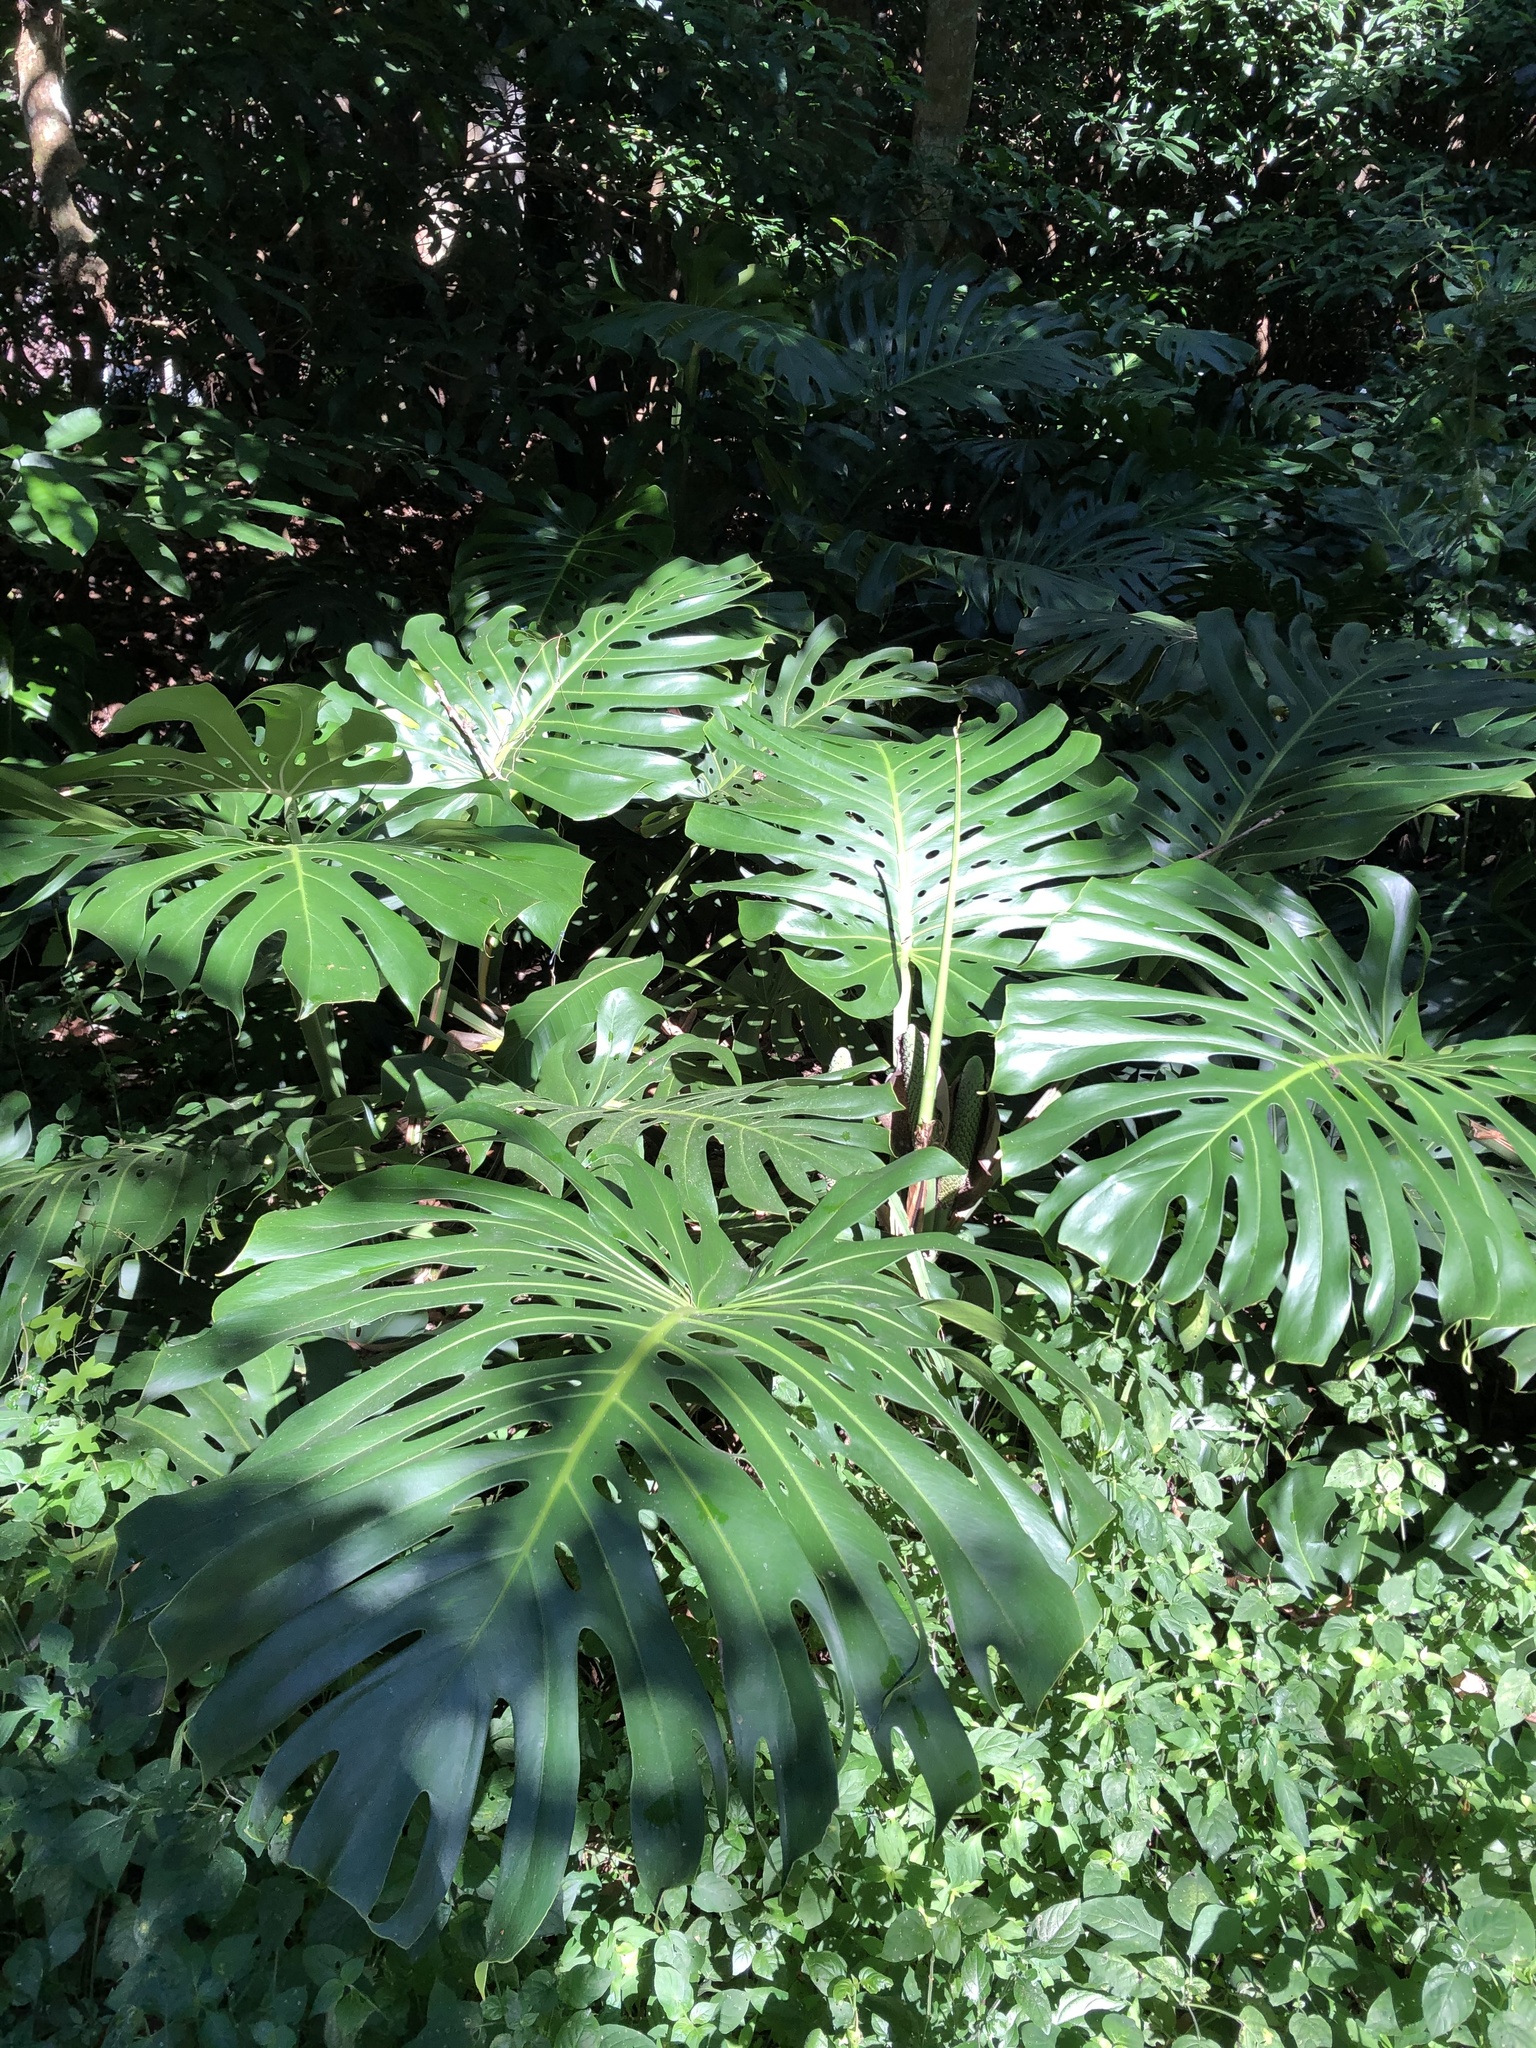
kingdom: Plantae
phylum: Tracheophyta
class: Liliopsida
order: Alismatales
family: Araceae
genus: Monstera
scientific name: Monstera deliciosa
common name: Cut-leaf-philodendron
